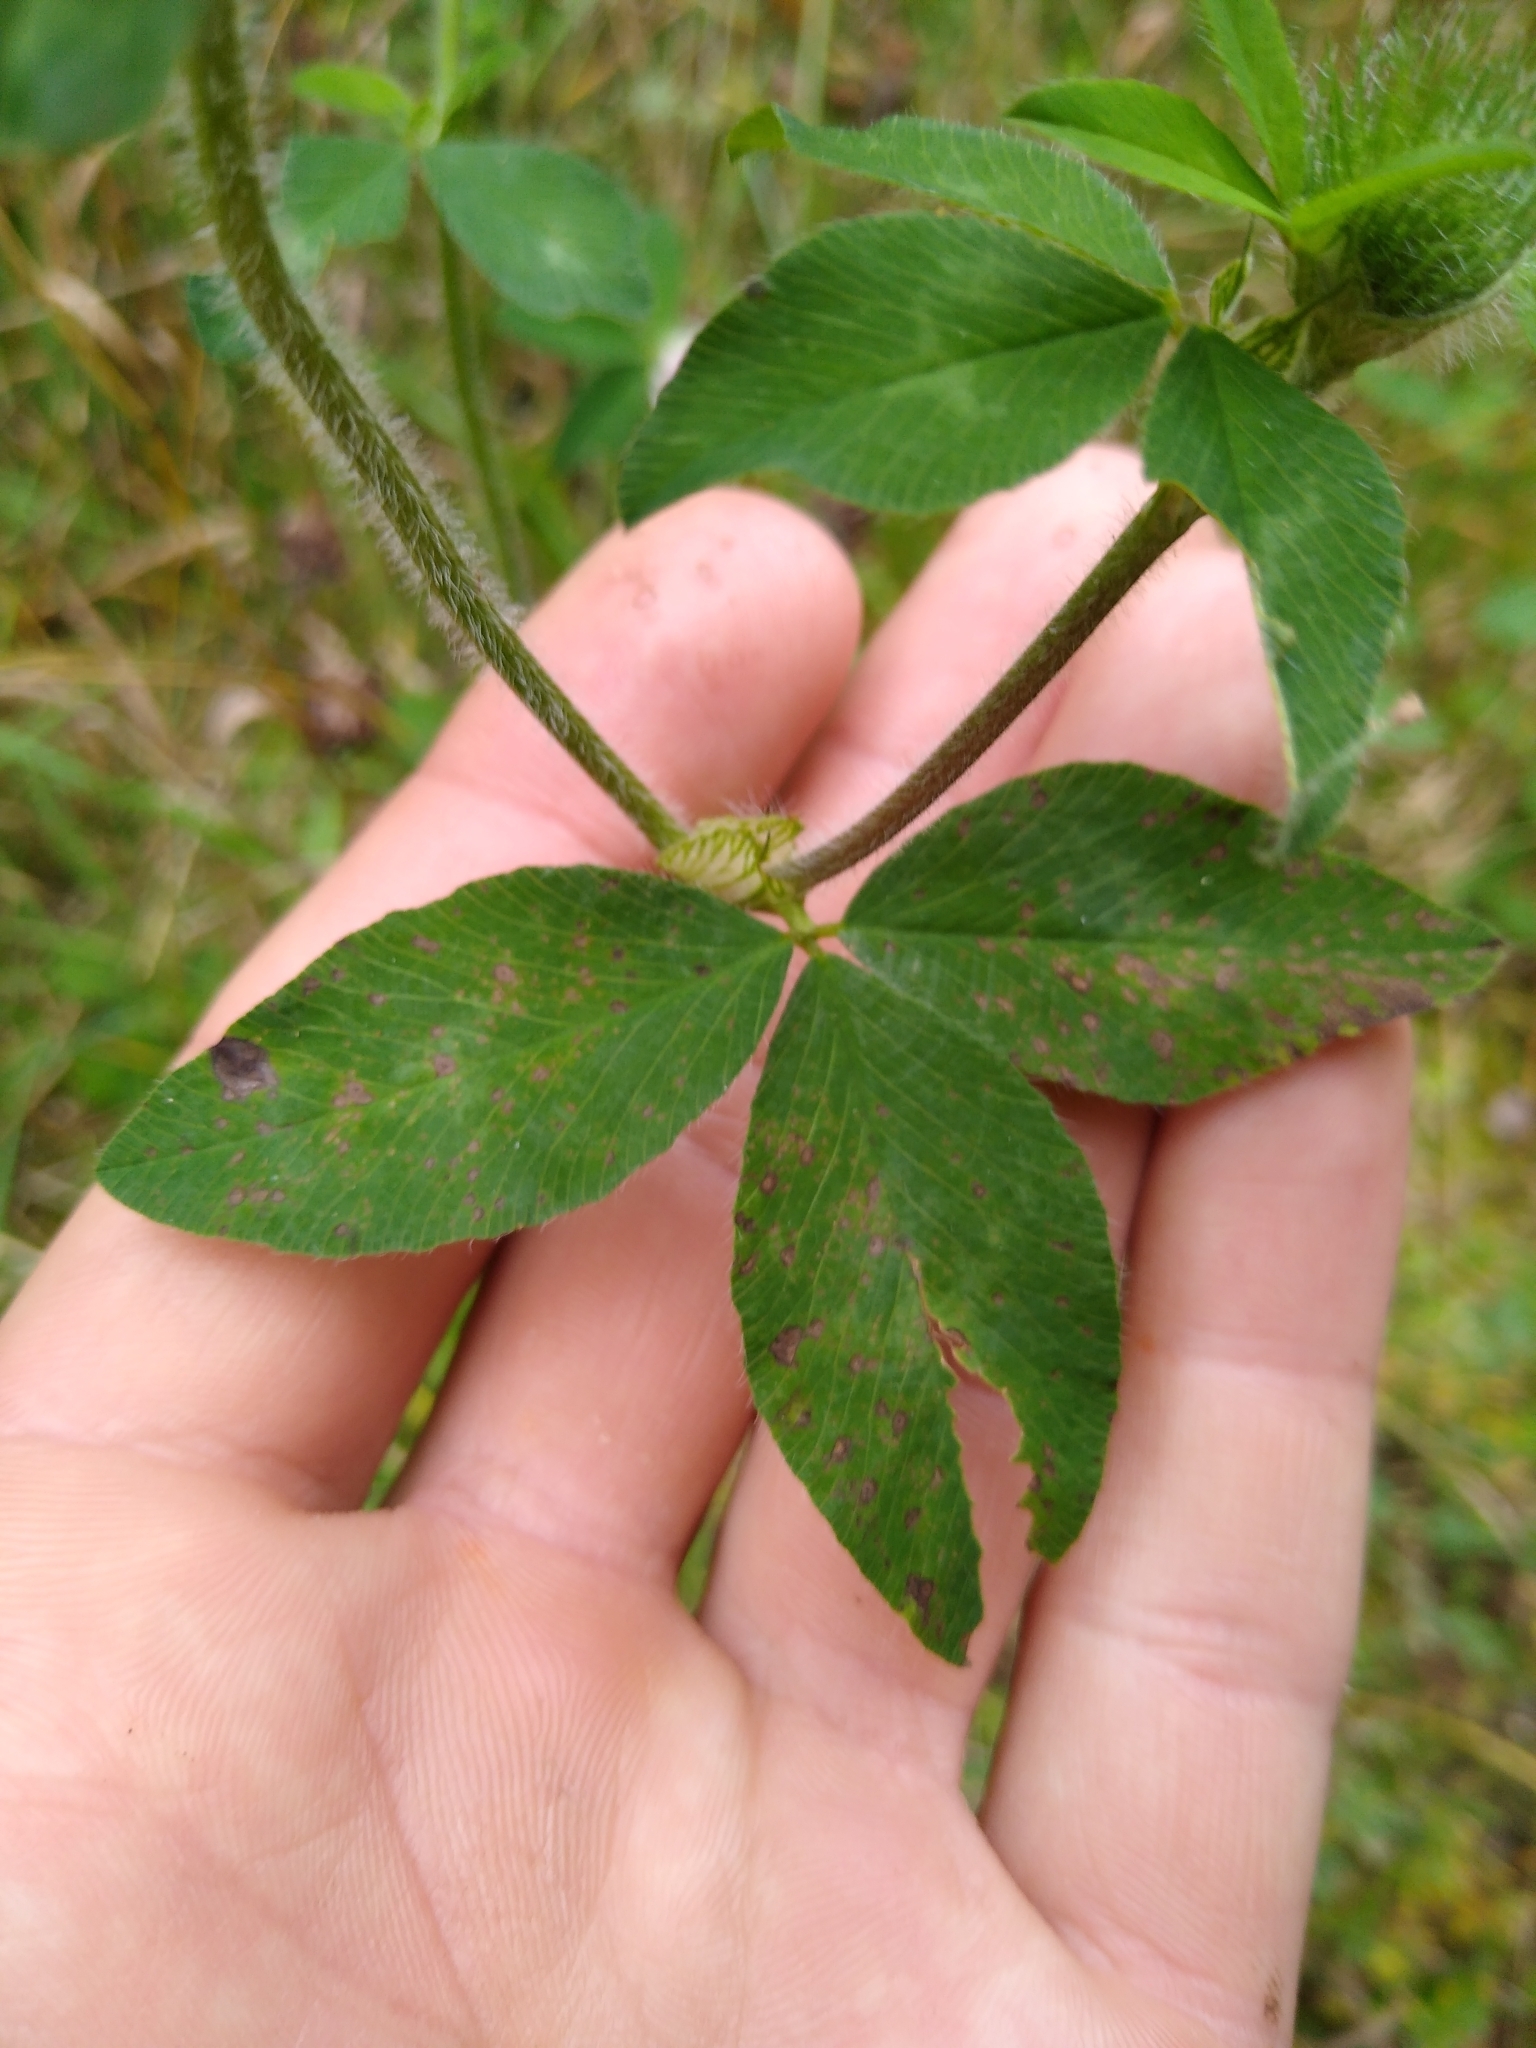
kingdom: Plantae
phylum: Tracheophyta
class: Magnoliopsida
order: Fabales
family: Fabaceae
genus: Trifolium
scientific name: Trifolium pratense
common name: Red clover
